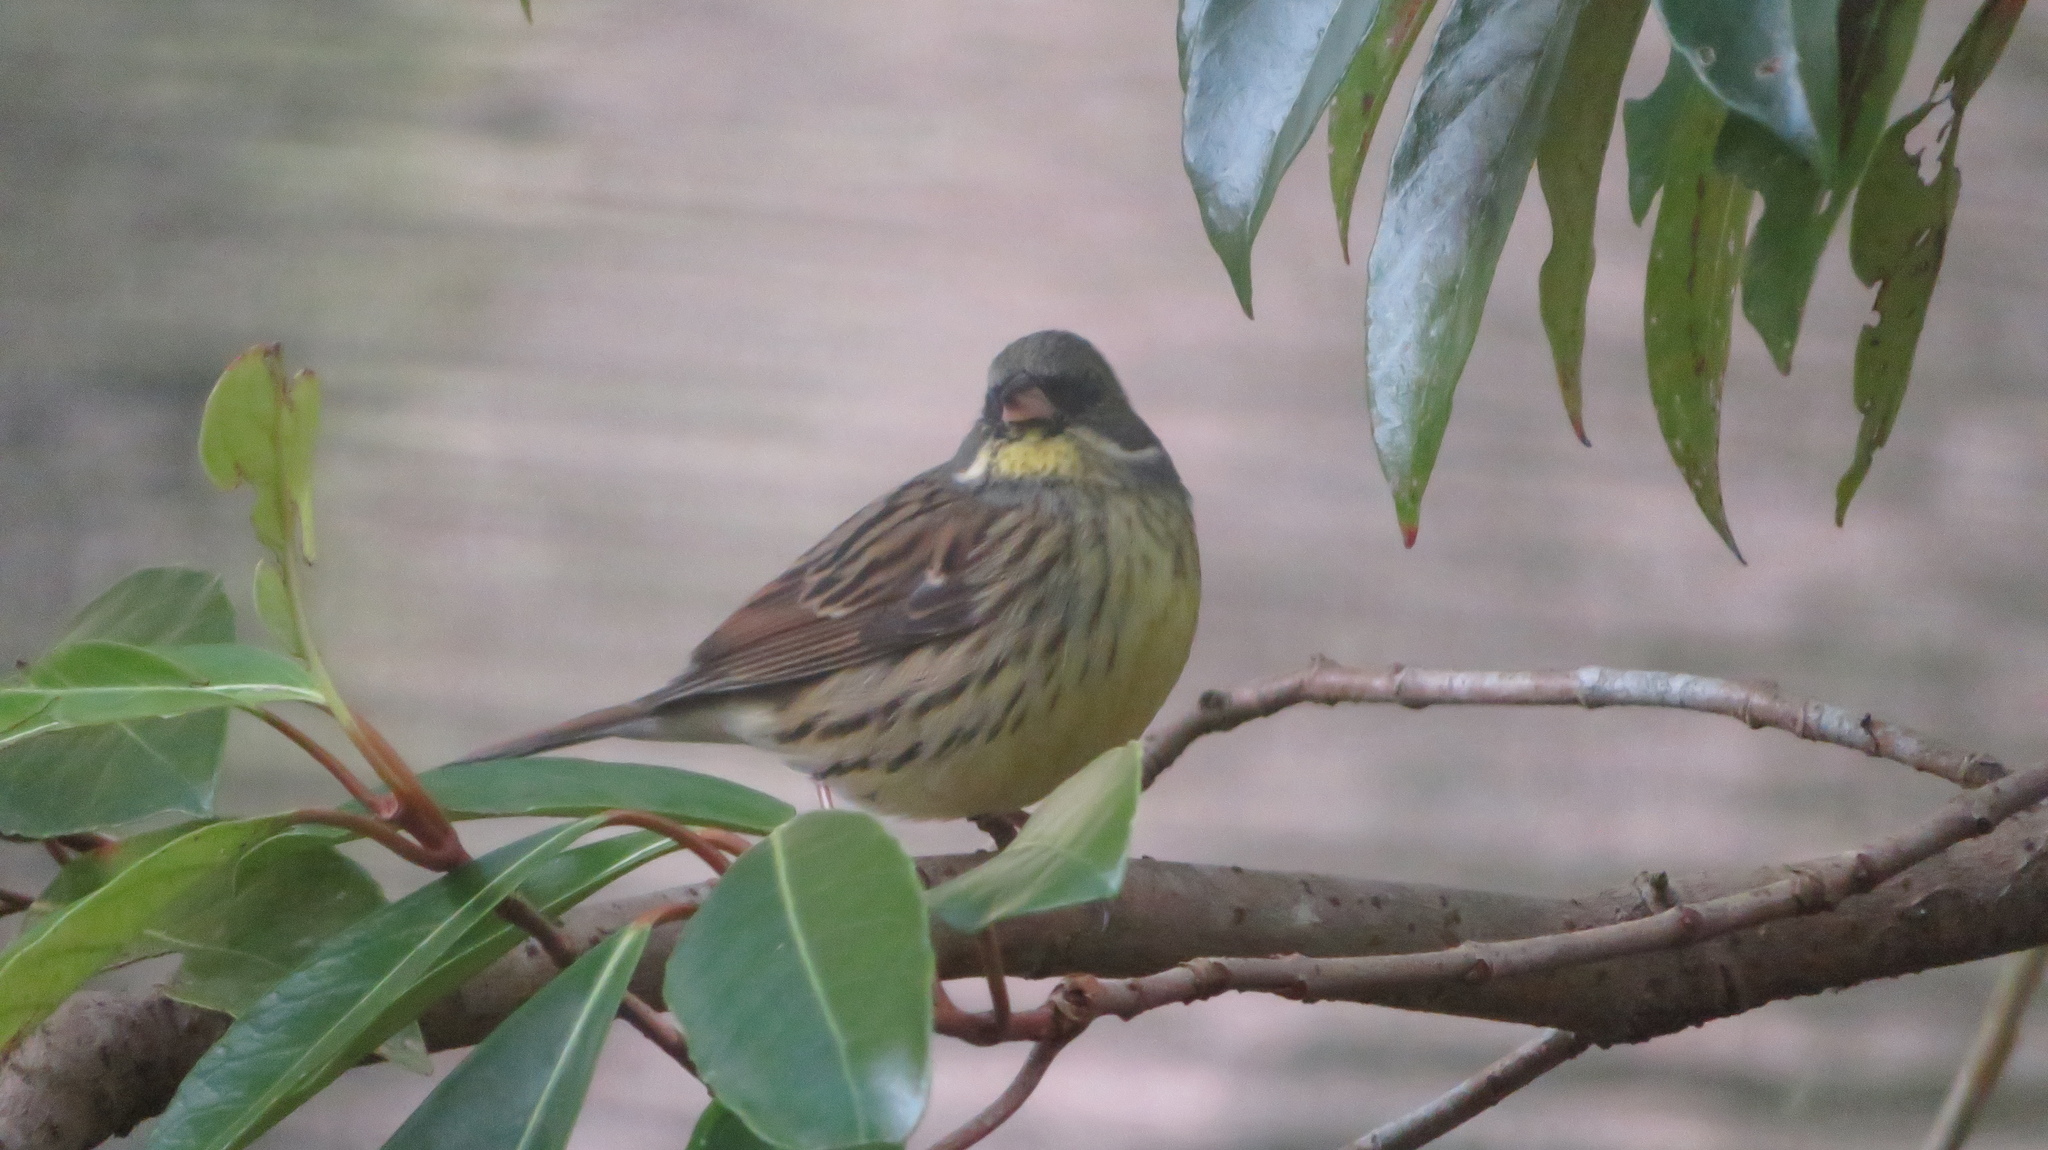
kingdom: Animalia
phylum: Chordata
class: Aves
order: Passeriformes
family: Emberizidae
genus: Emberiza
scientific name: Emberiza personata
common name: Masked bunting
